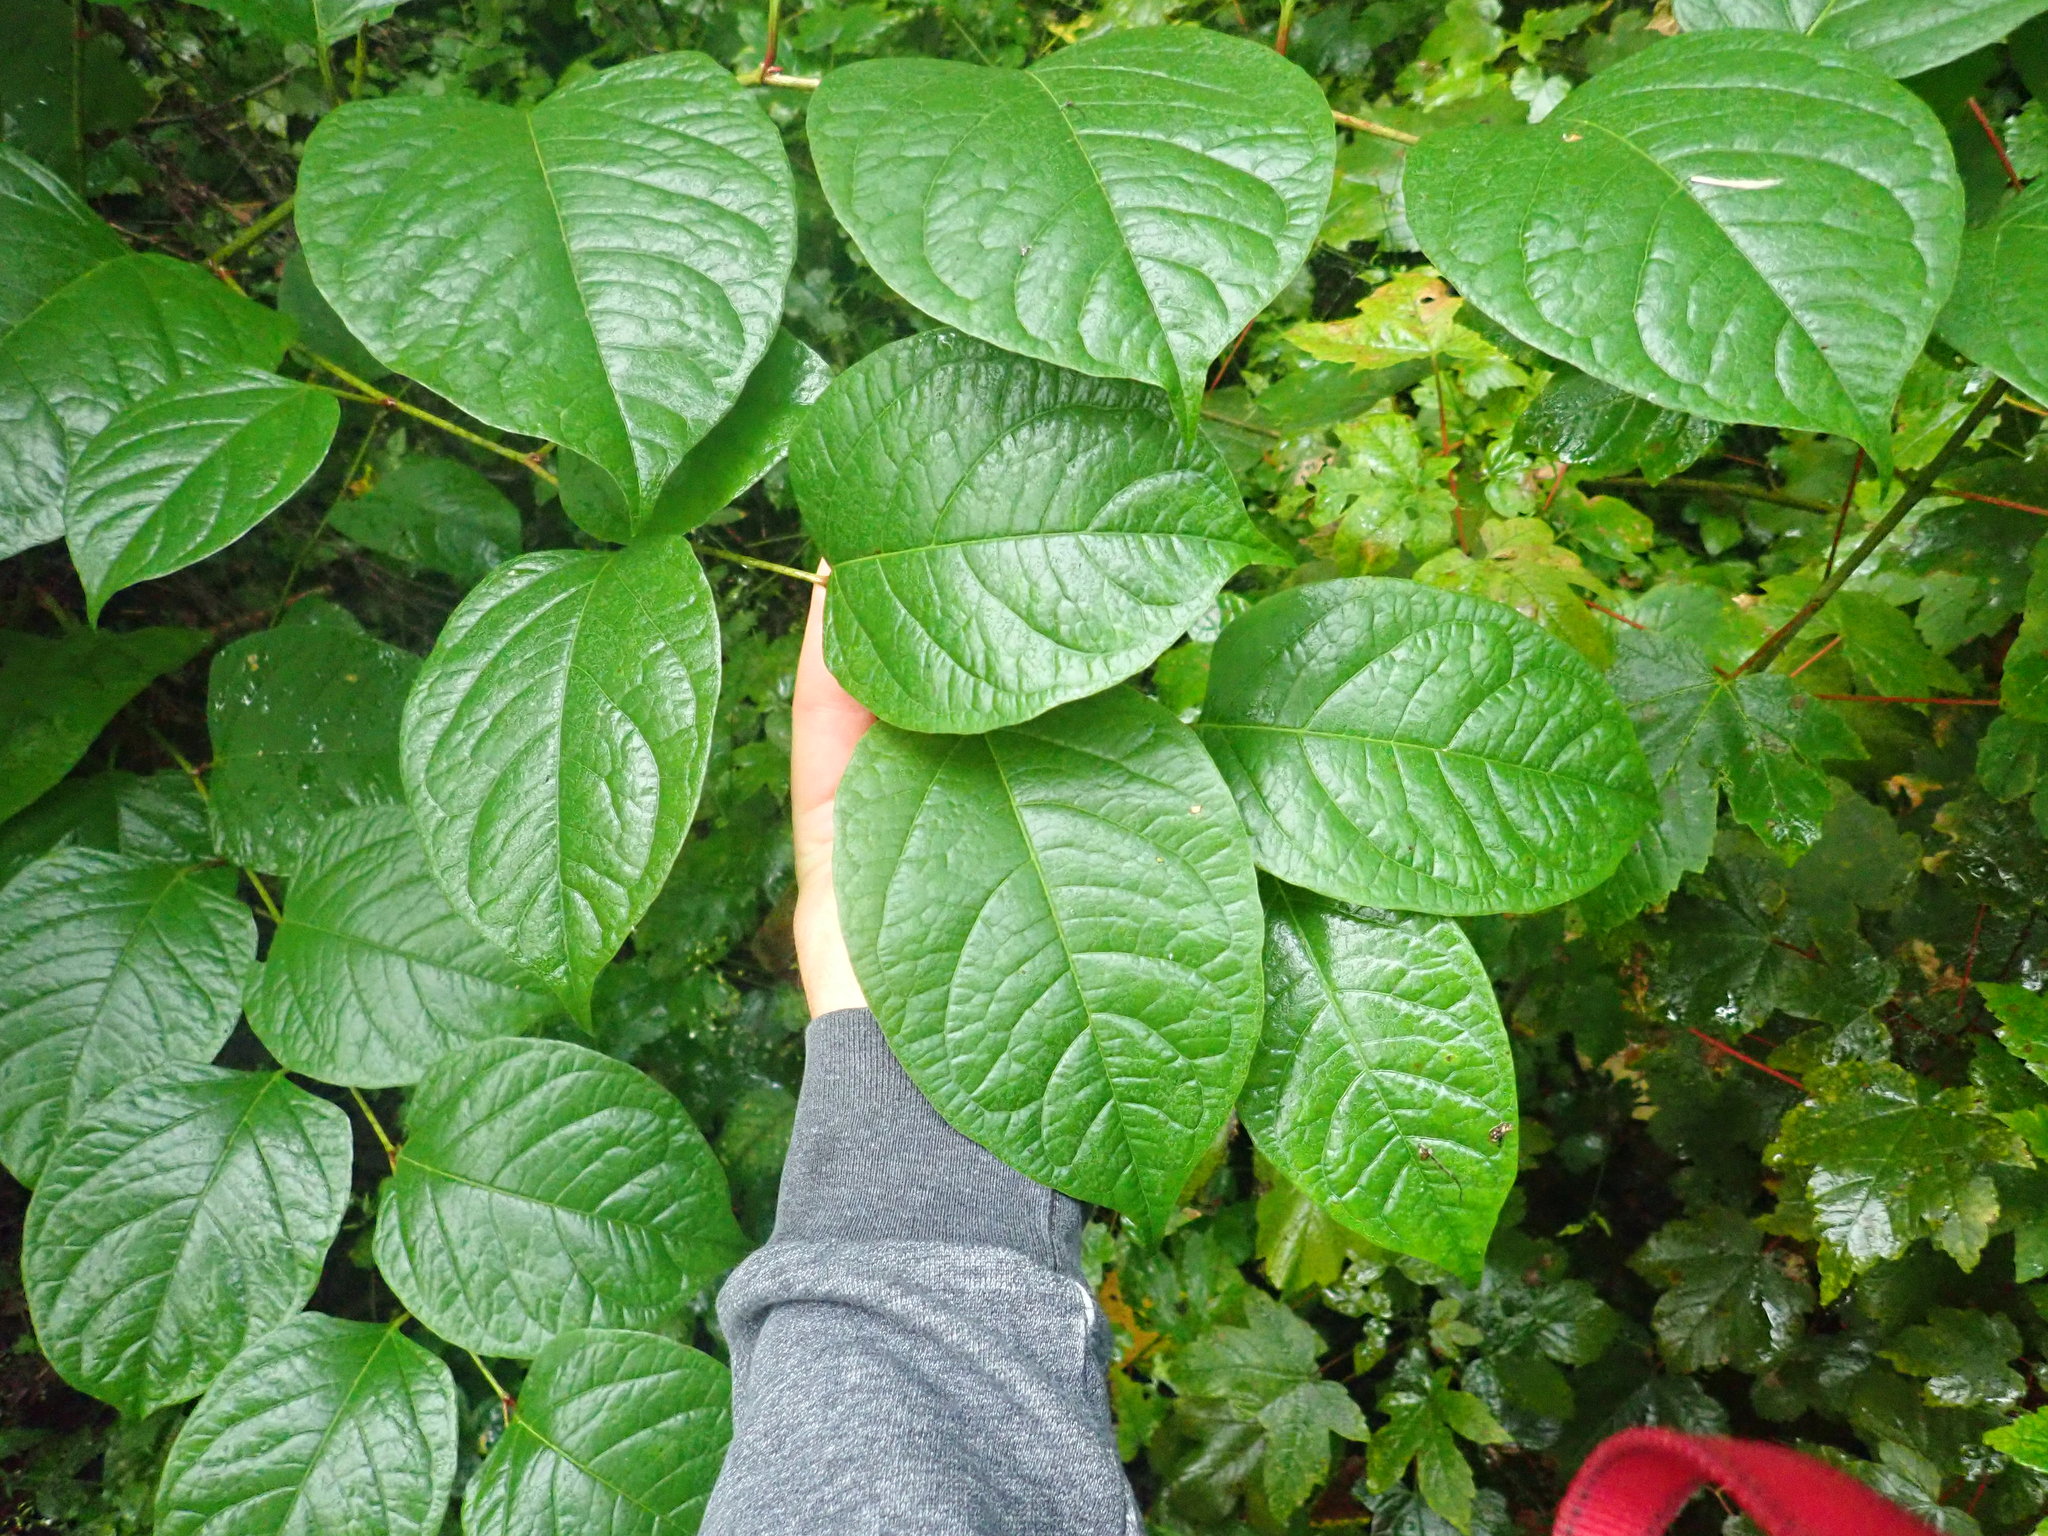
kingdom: Plantae
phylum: Tracheophyta
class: Magnoliopsida
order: Caryophyllales
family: Polygonaceae
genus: Reynoutria
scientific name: Reynoutria japonica
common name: Japanese knotweed
